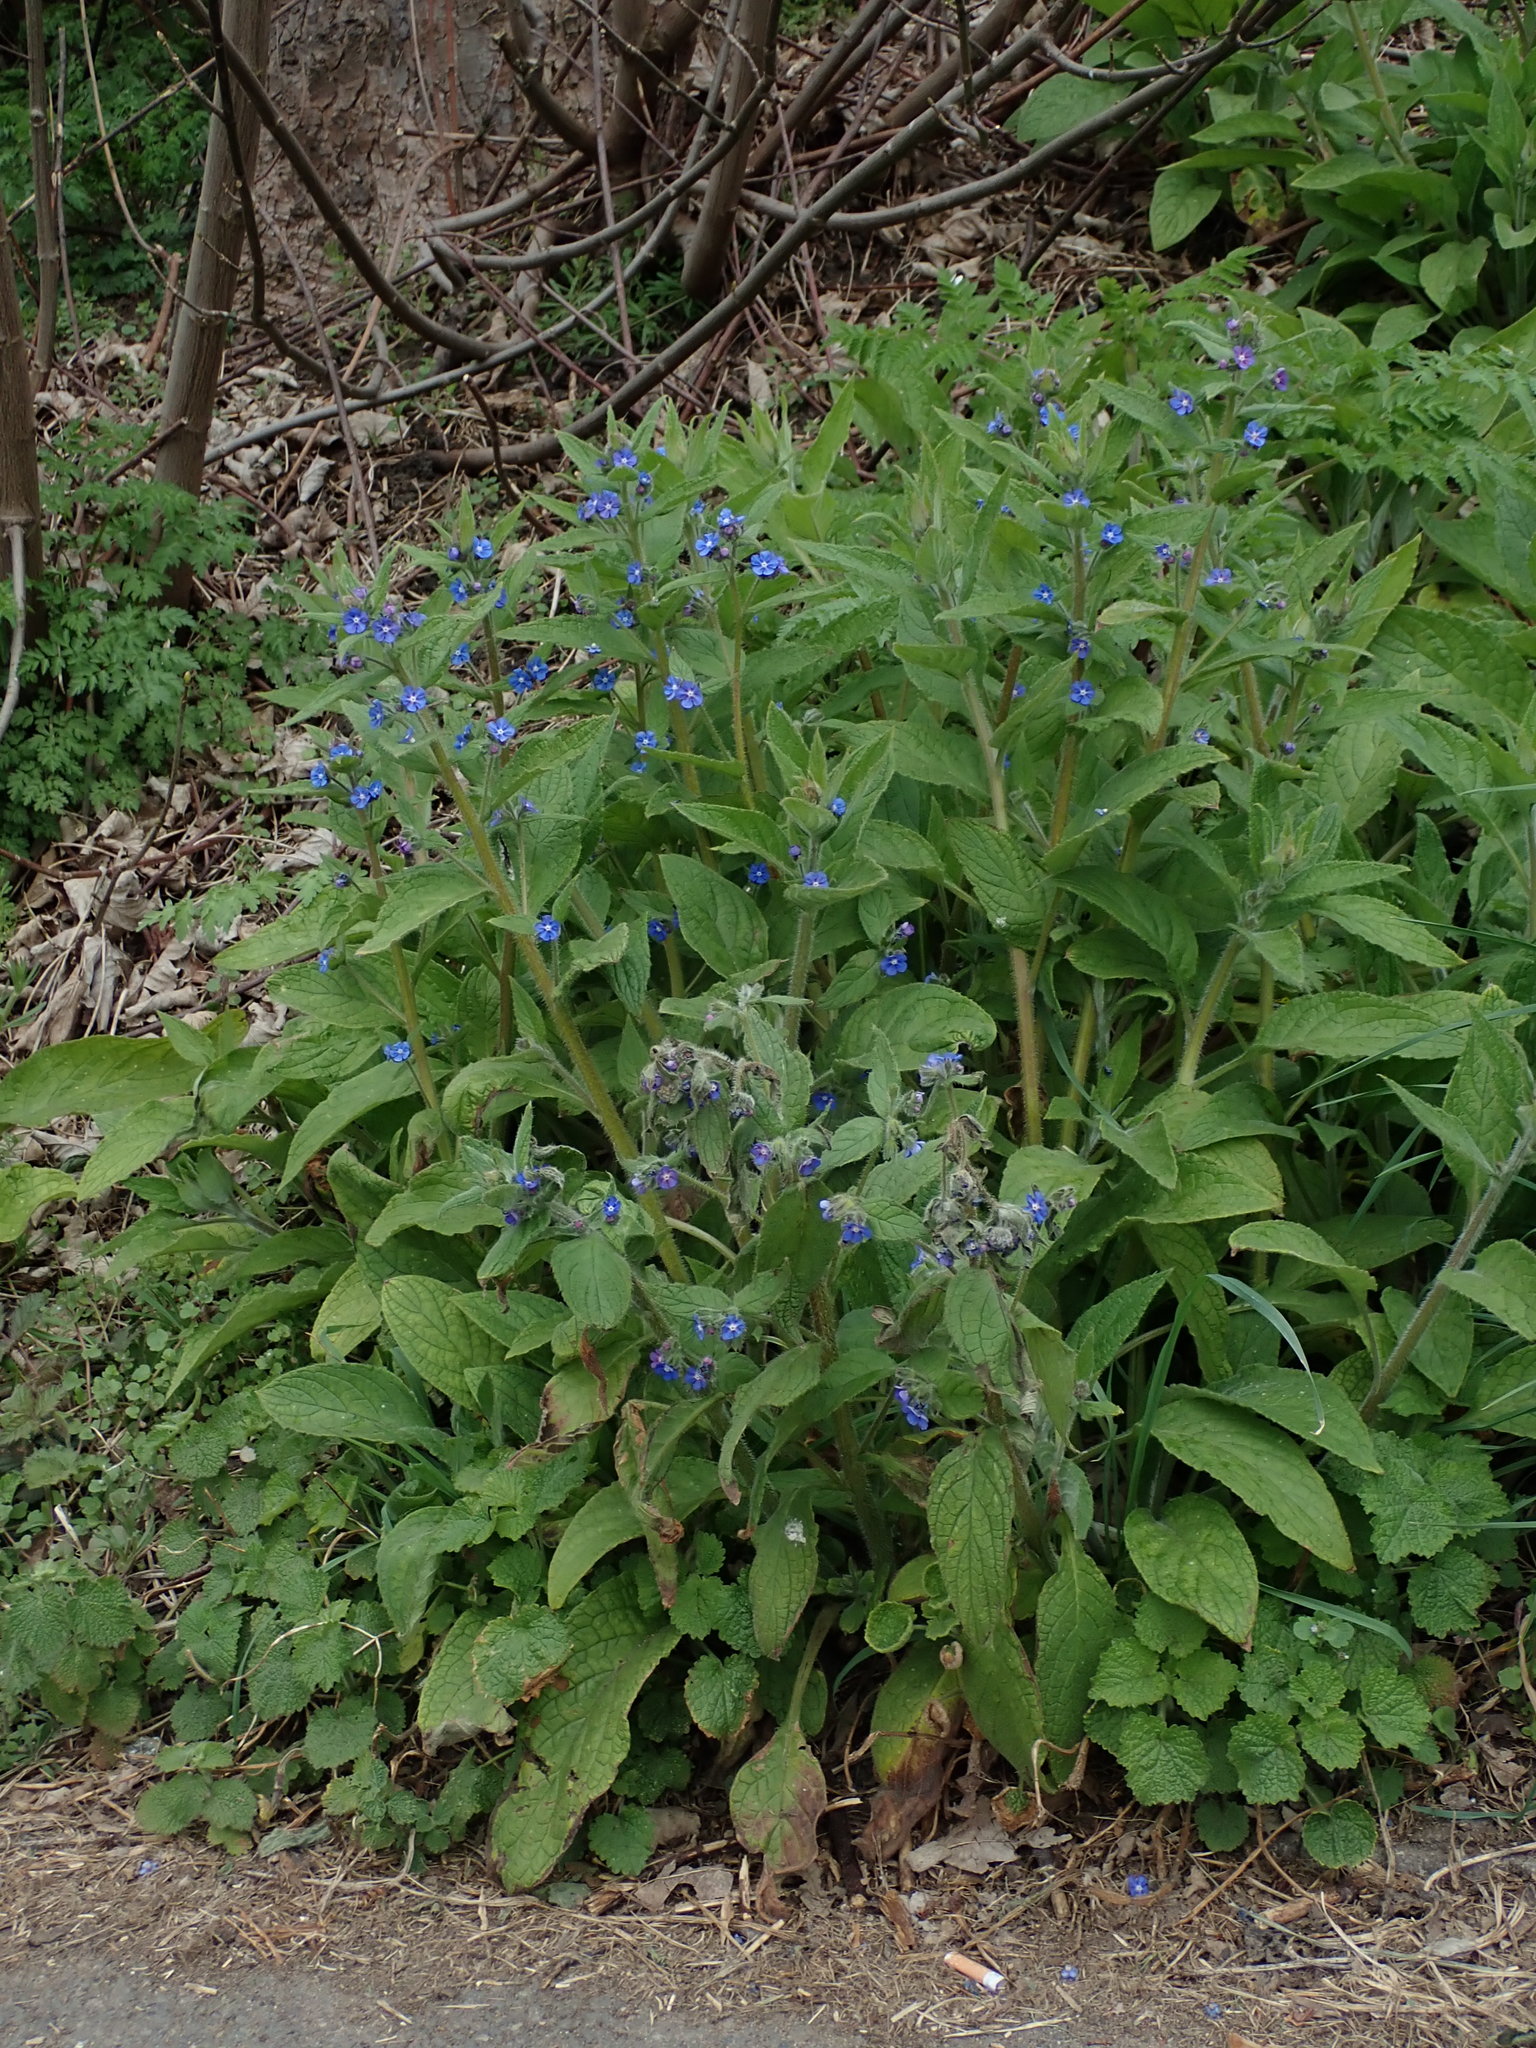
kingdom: Plantae
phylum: Tracheophyta
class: Magnoliopsida
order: Boraginales
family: Boraginaceae
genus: Pentaglottis
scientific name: Pentaglottis sempervirens
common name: Green alkanet
